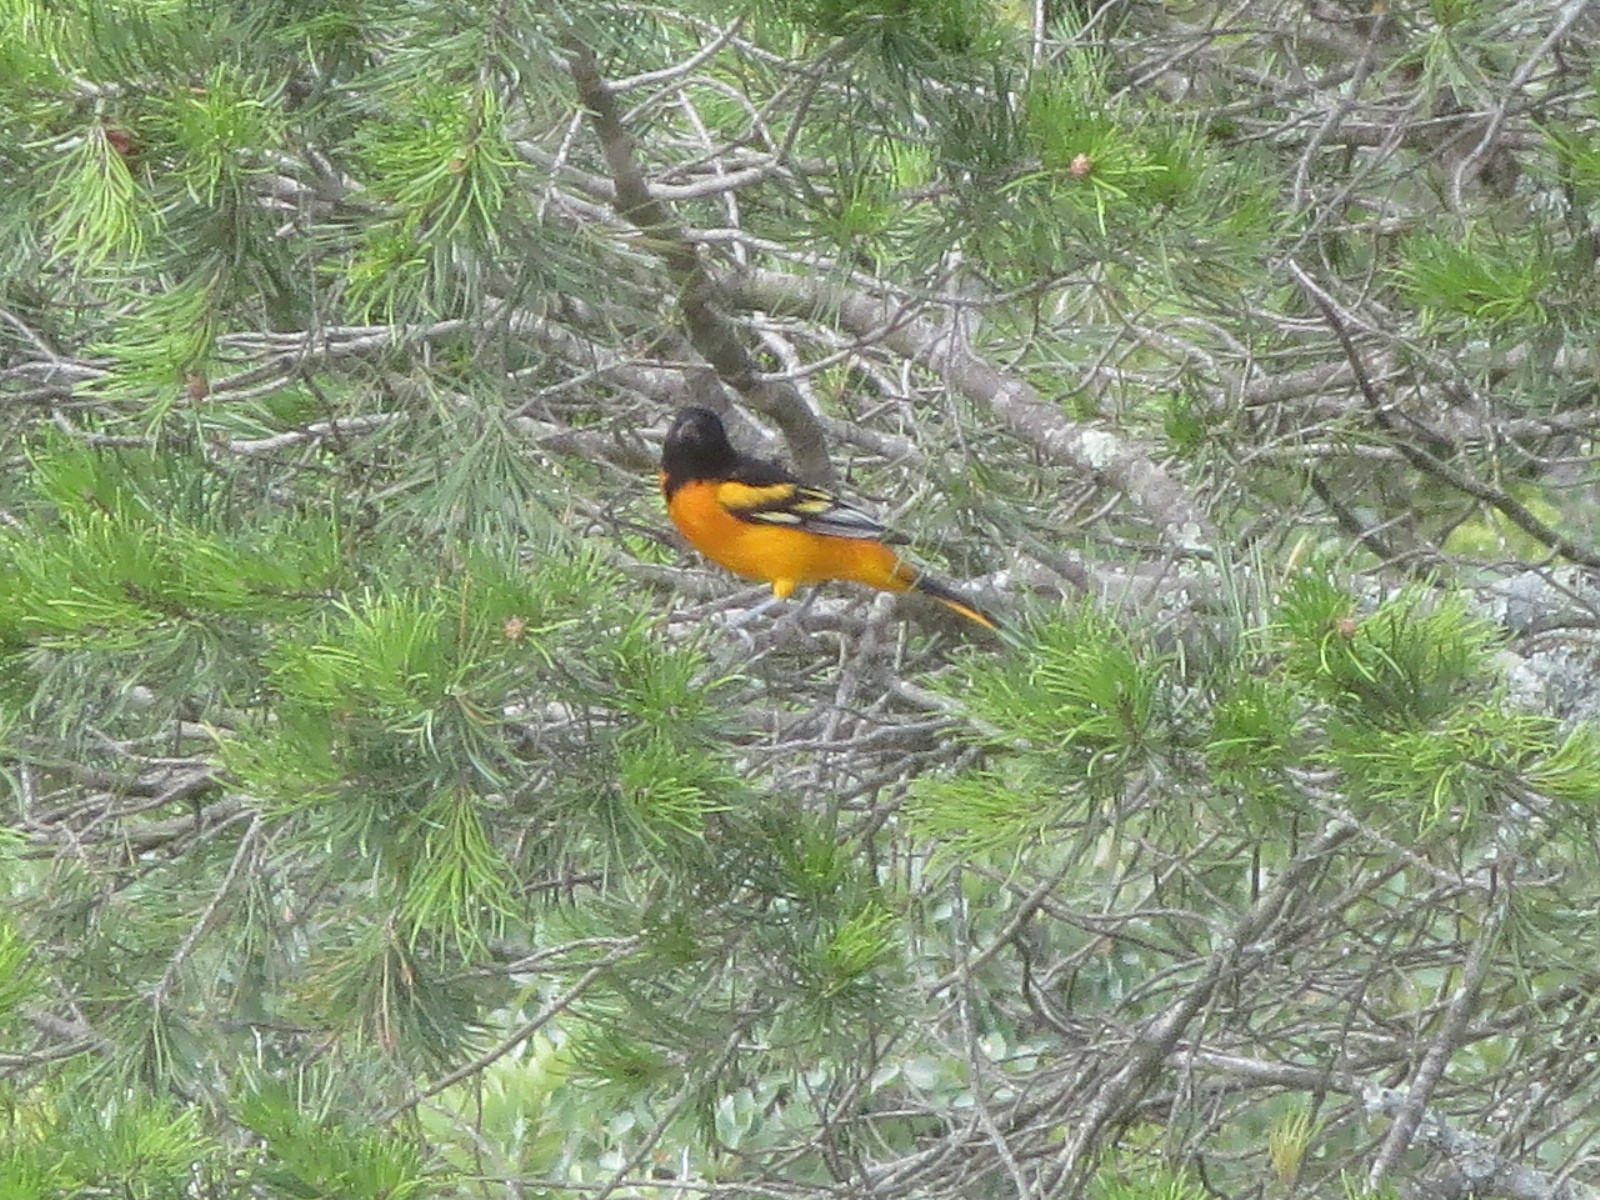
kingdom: Animalia
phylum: Chordata
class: Aves
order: Passeriformes
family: Icteridae
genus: Icterus
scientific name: Icterus galbula
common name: Baltimore oriole
